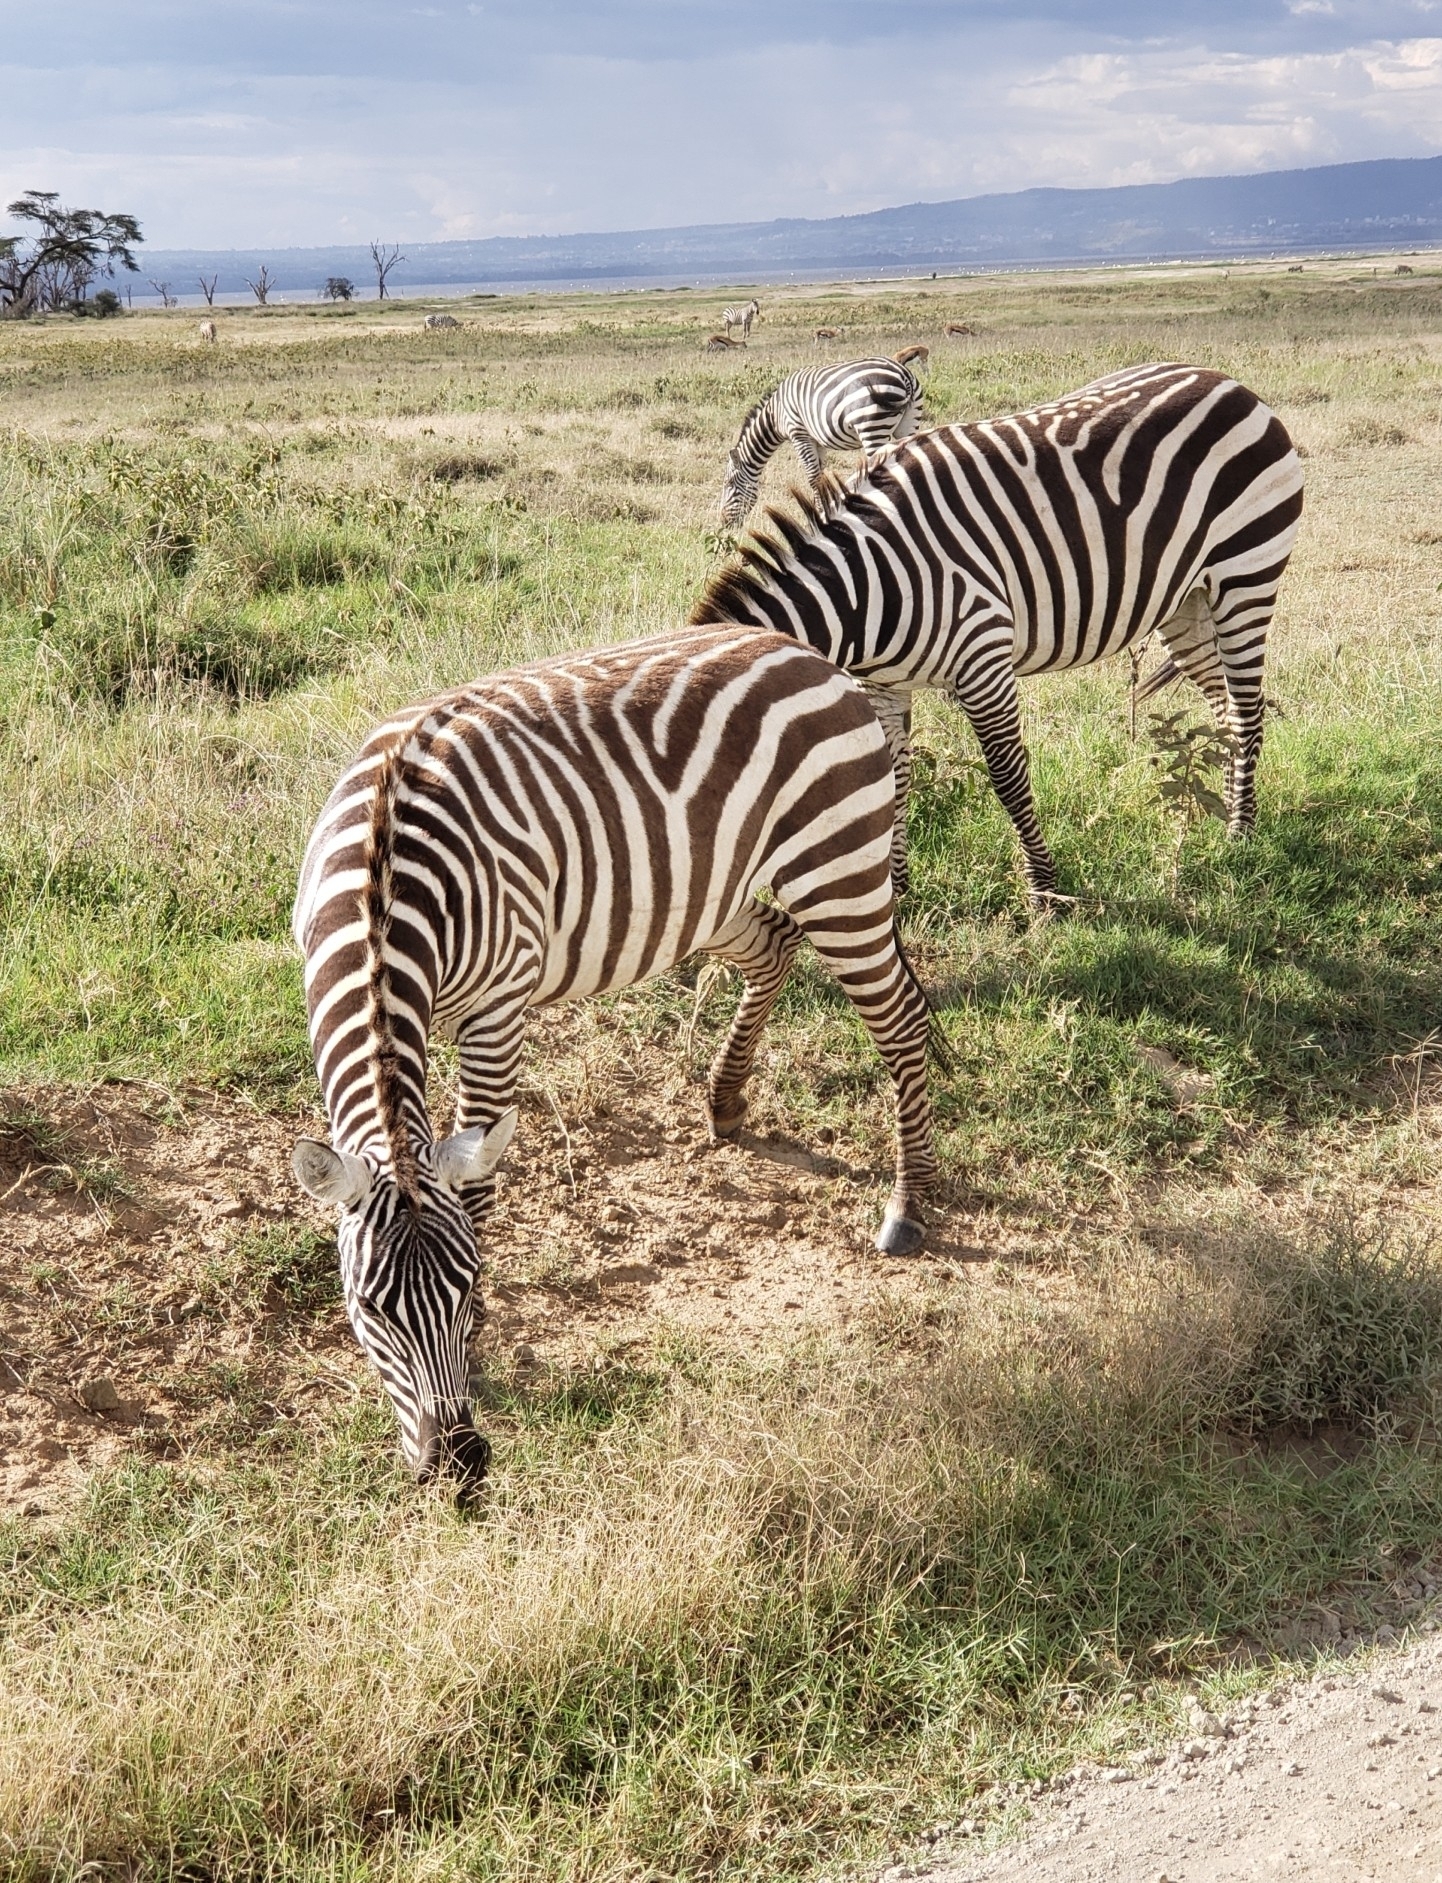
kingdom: Animalia
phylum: Chordata
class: Mammalia
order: Perissodactyla
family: Equidae
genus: Equus
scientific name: Equus quagga
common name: Plains zebra
